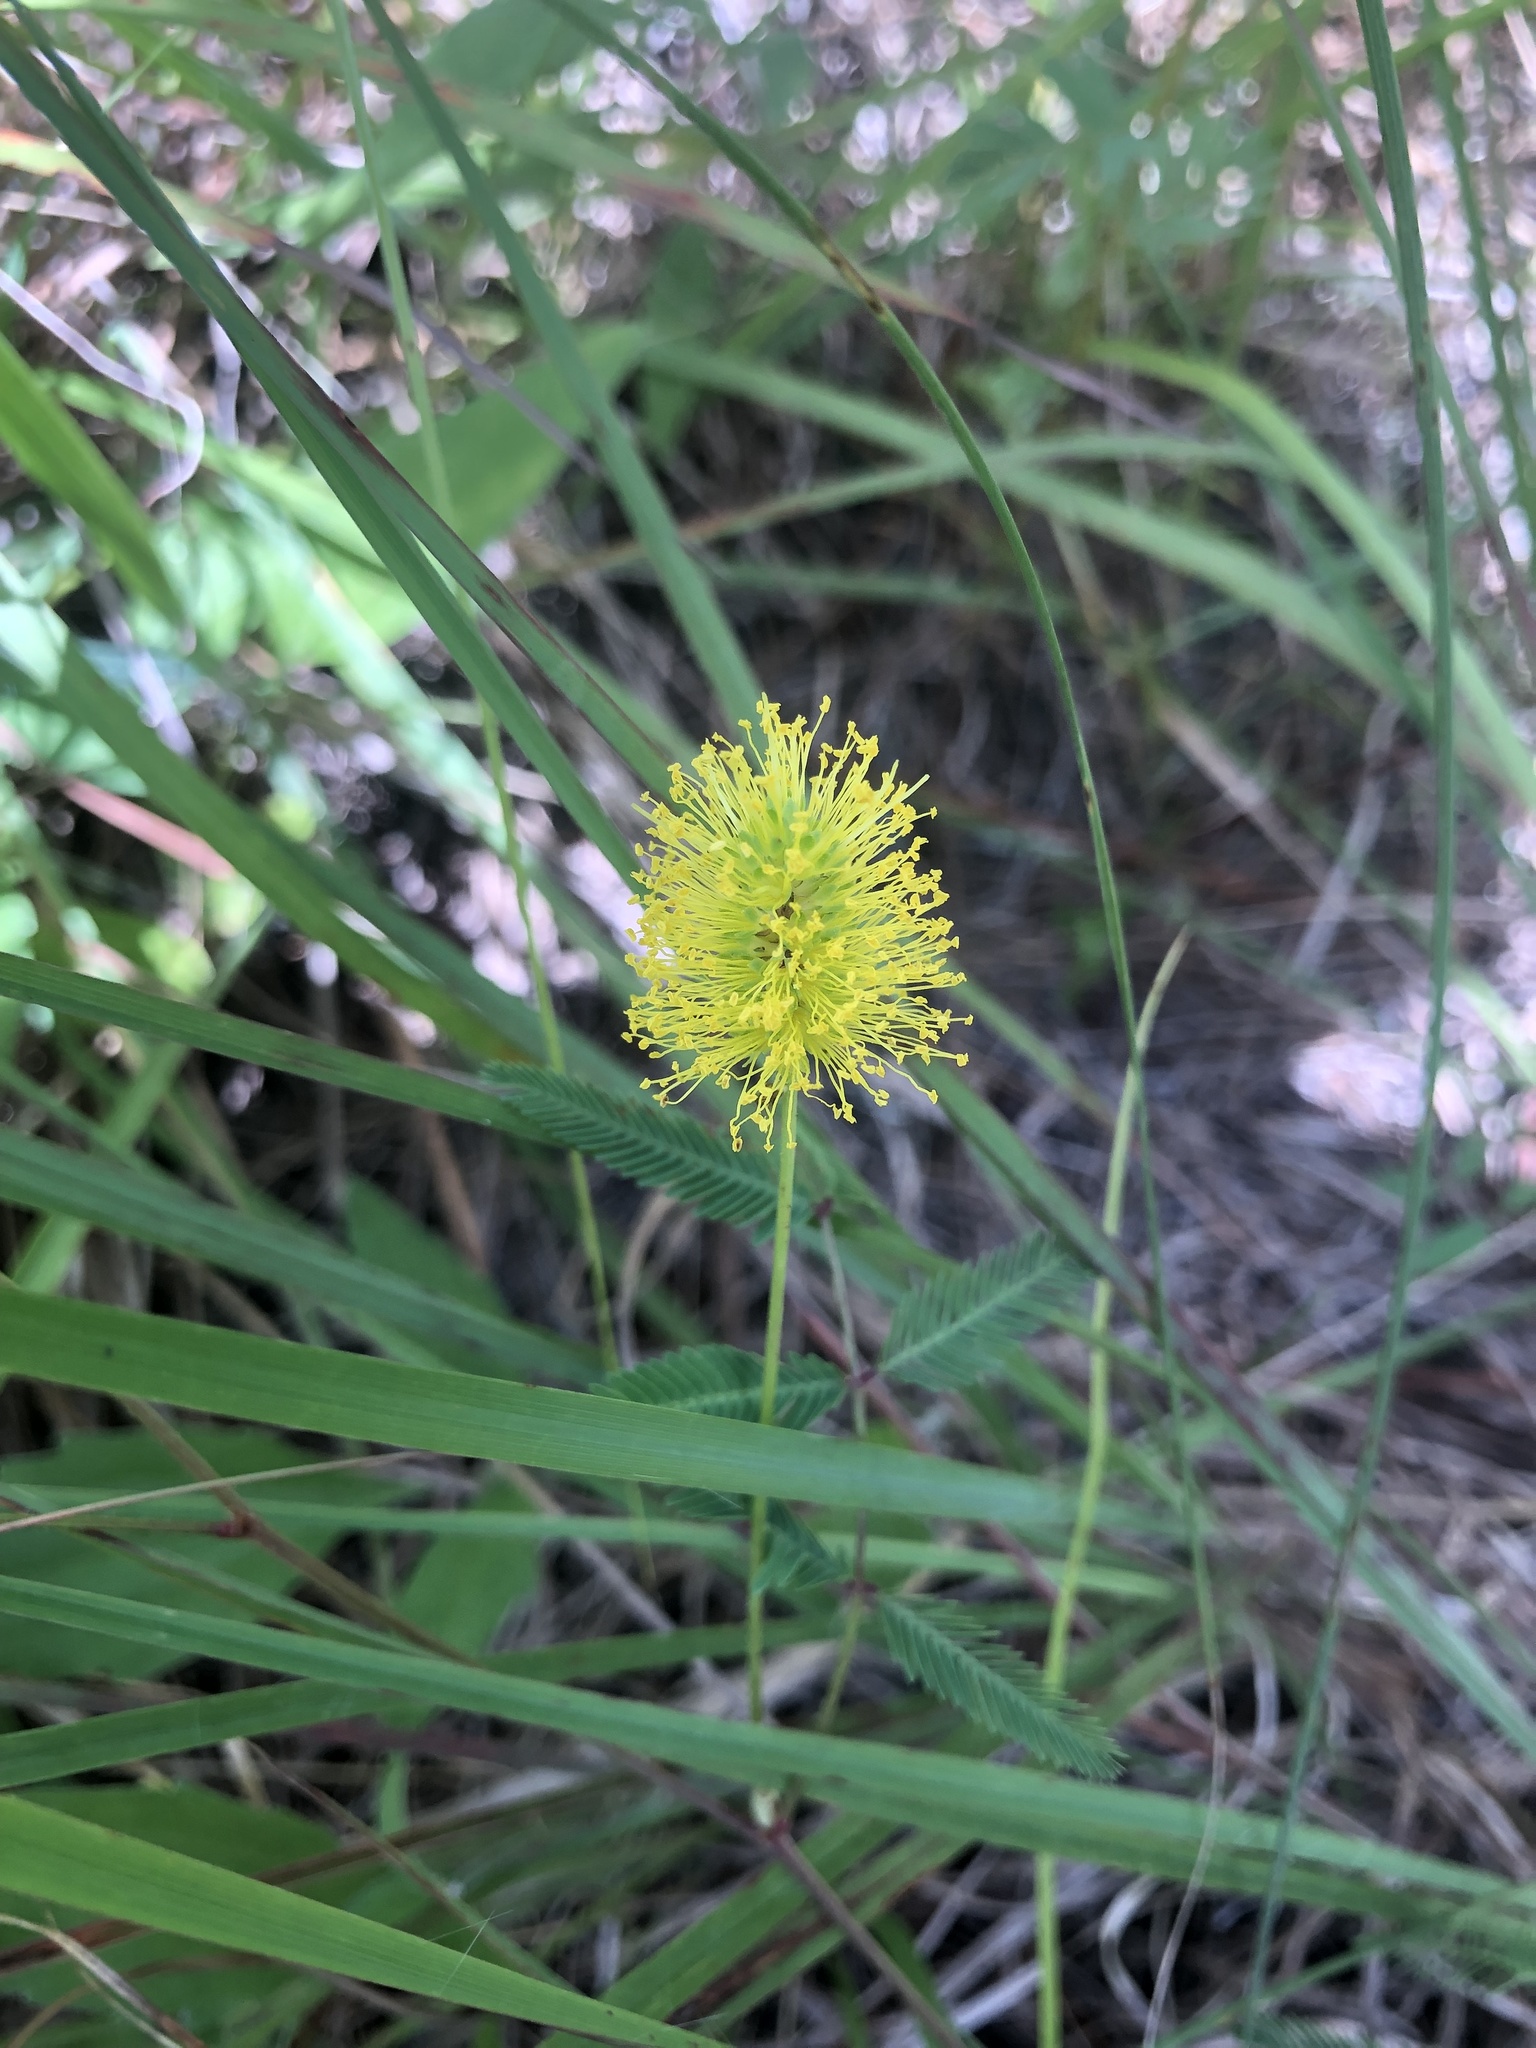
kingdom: Plantae
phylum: Tracheophyta
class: Magnoliopsida
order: Fabales
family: Fabaceae
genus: Neptunia
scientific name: Neptunia lutea
